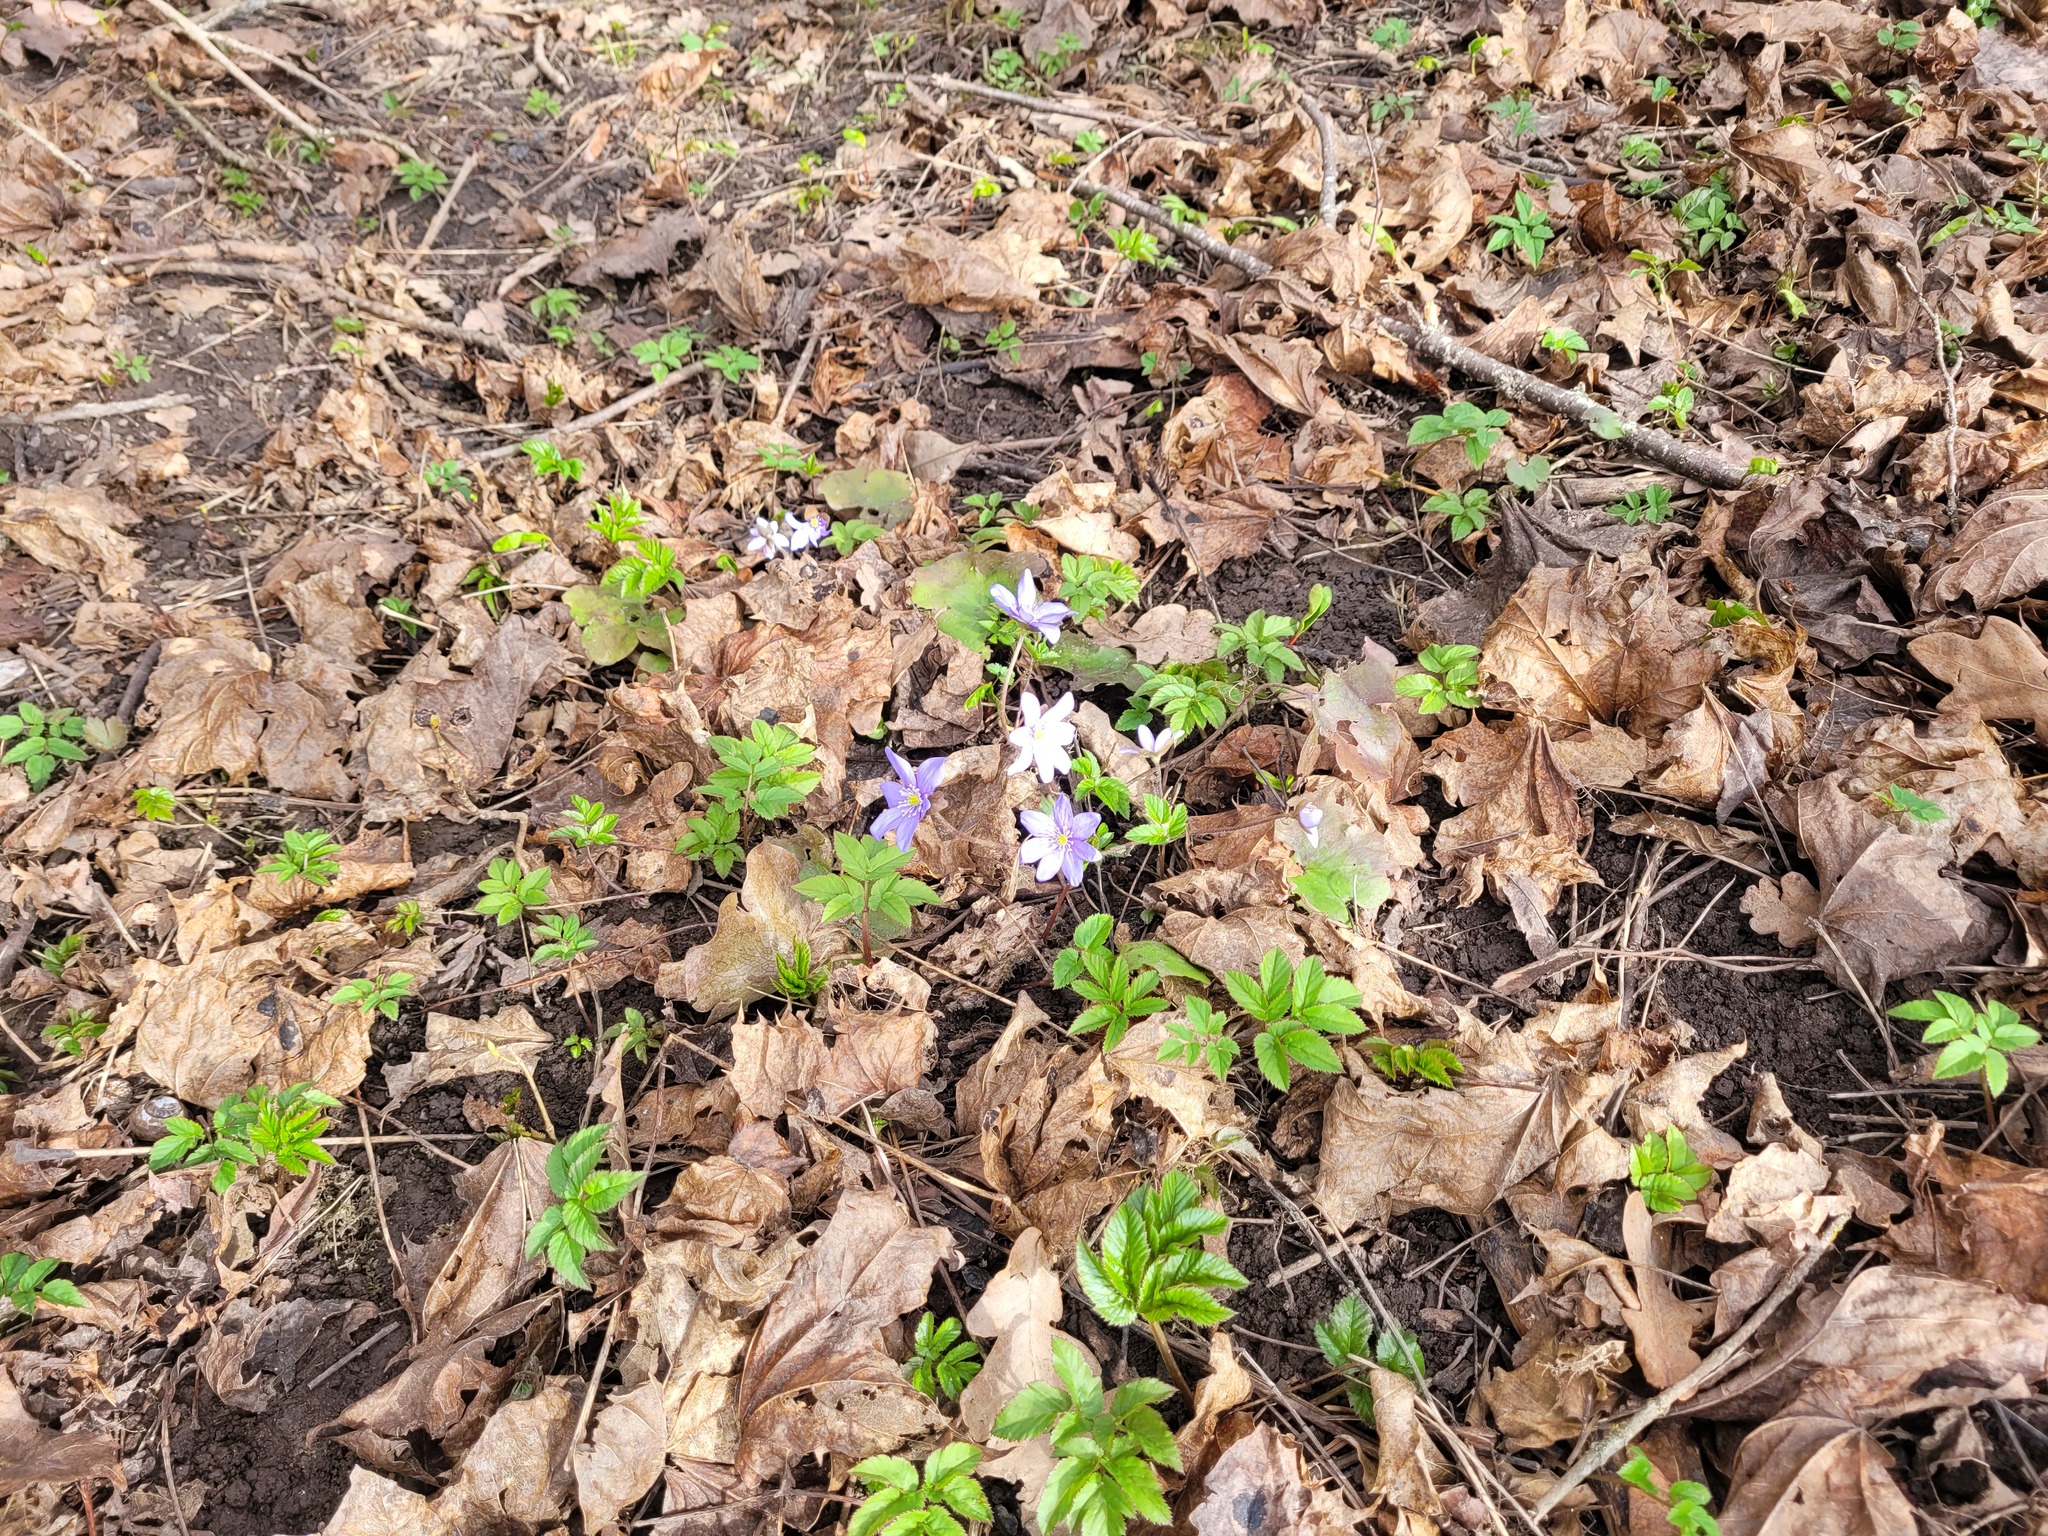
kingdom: Plantae
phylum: Tracheophyta
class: Magnoliopsida
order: Ranunculales
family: Ranunculaceae
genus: Hepatica
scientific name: Hepatica nobilis
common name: Liverleaf
